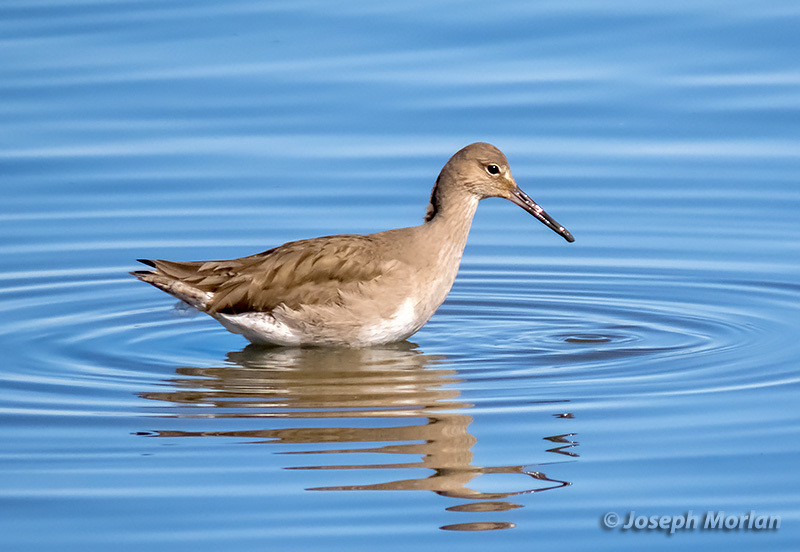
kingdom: Animalia
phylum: Chordata
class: Aves
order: Charadriiformes
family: Scolopacidae
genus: Tringa
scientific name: Tringa semipalmata
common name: Willet
